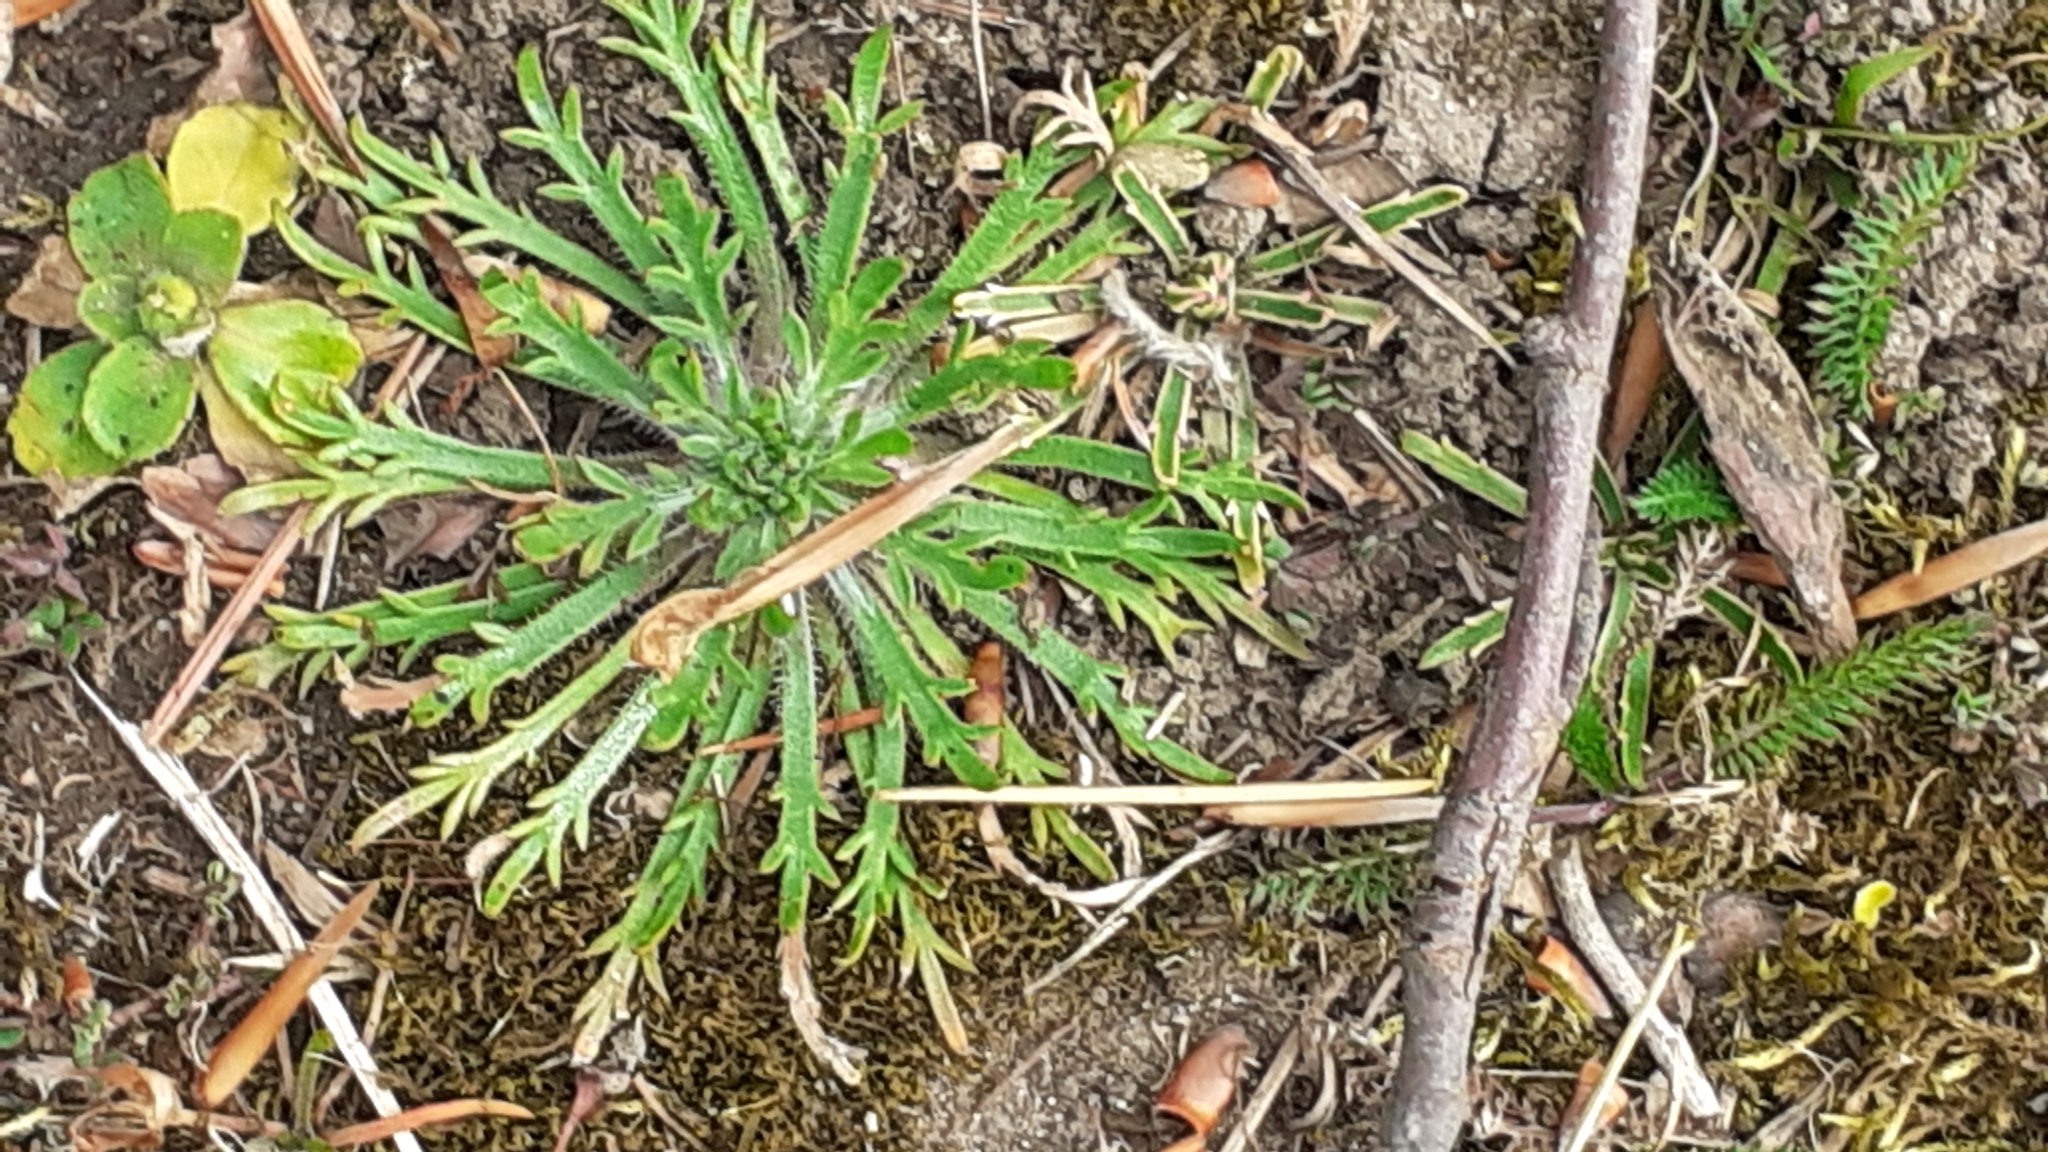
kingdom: Plantae
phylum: Tracheophyta
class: Magnoliopsida
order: Lamiales
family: Plantaginaceae
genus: Plantago
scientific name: Plantago coronopus
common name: Buck's-horn plantain
